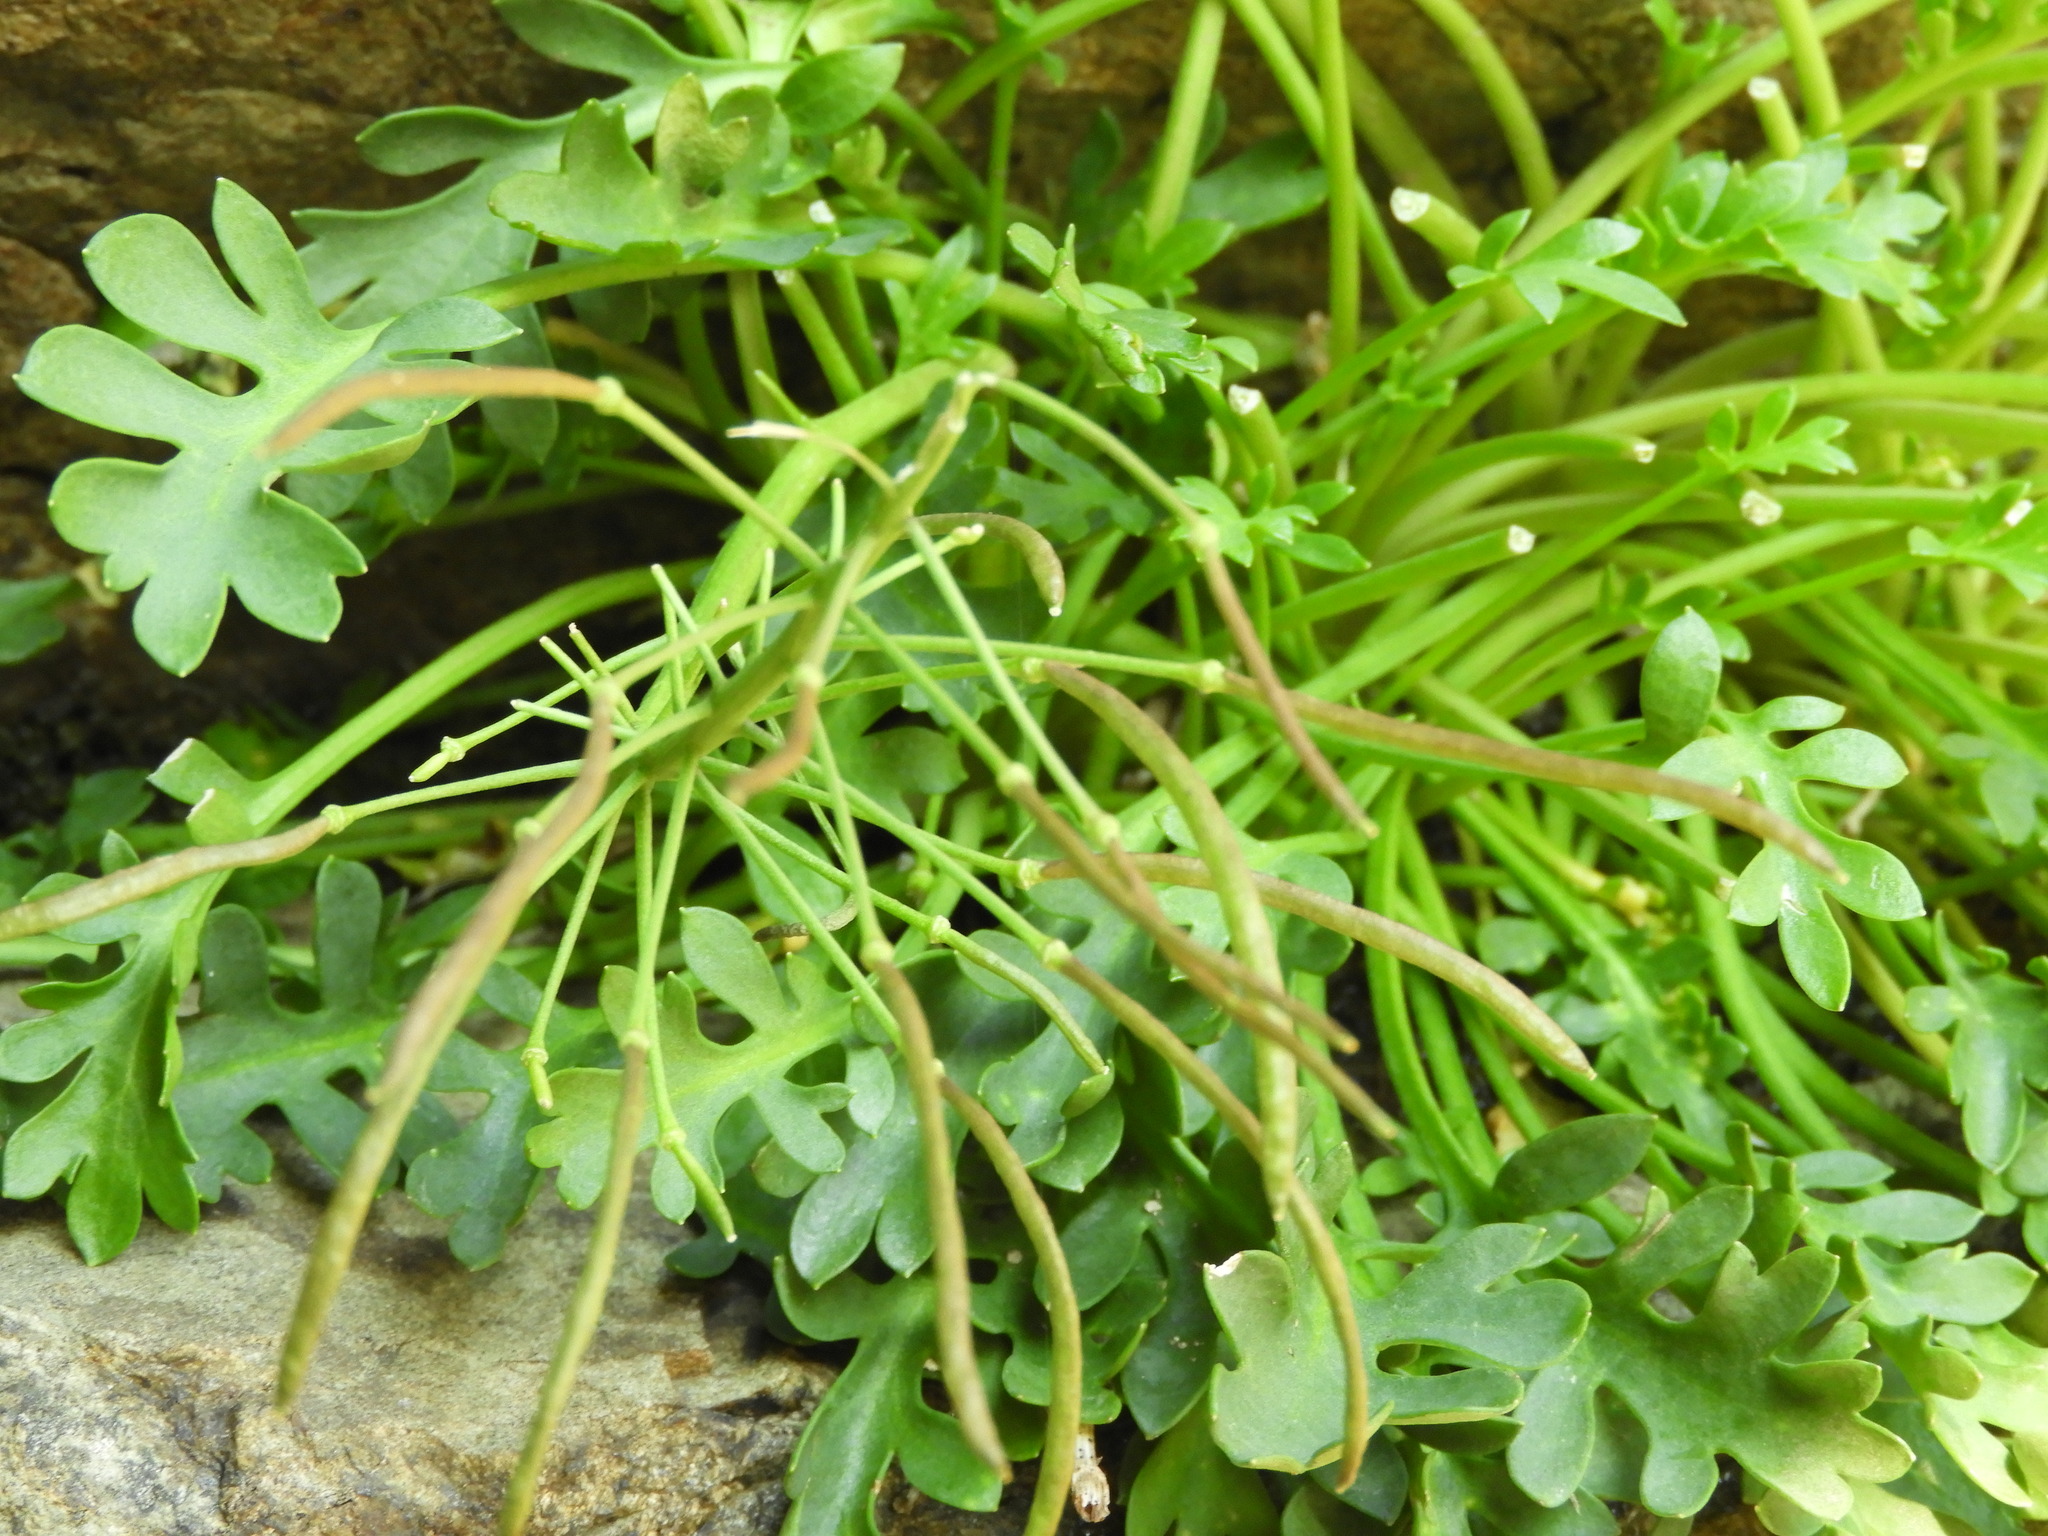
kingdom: Plantae
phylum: Tracheophyta
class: Magnoliopsida
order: Brassicales
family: Brassicaceae
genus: Pachycladon
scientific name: Pachycladon wallii
